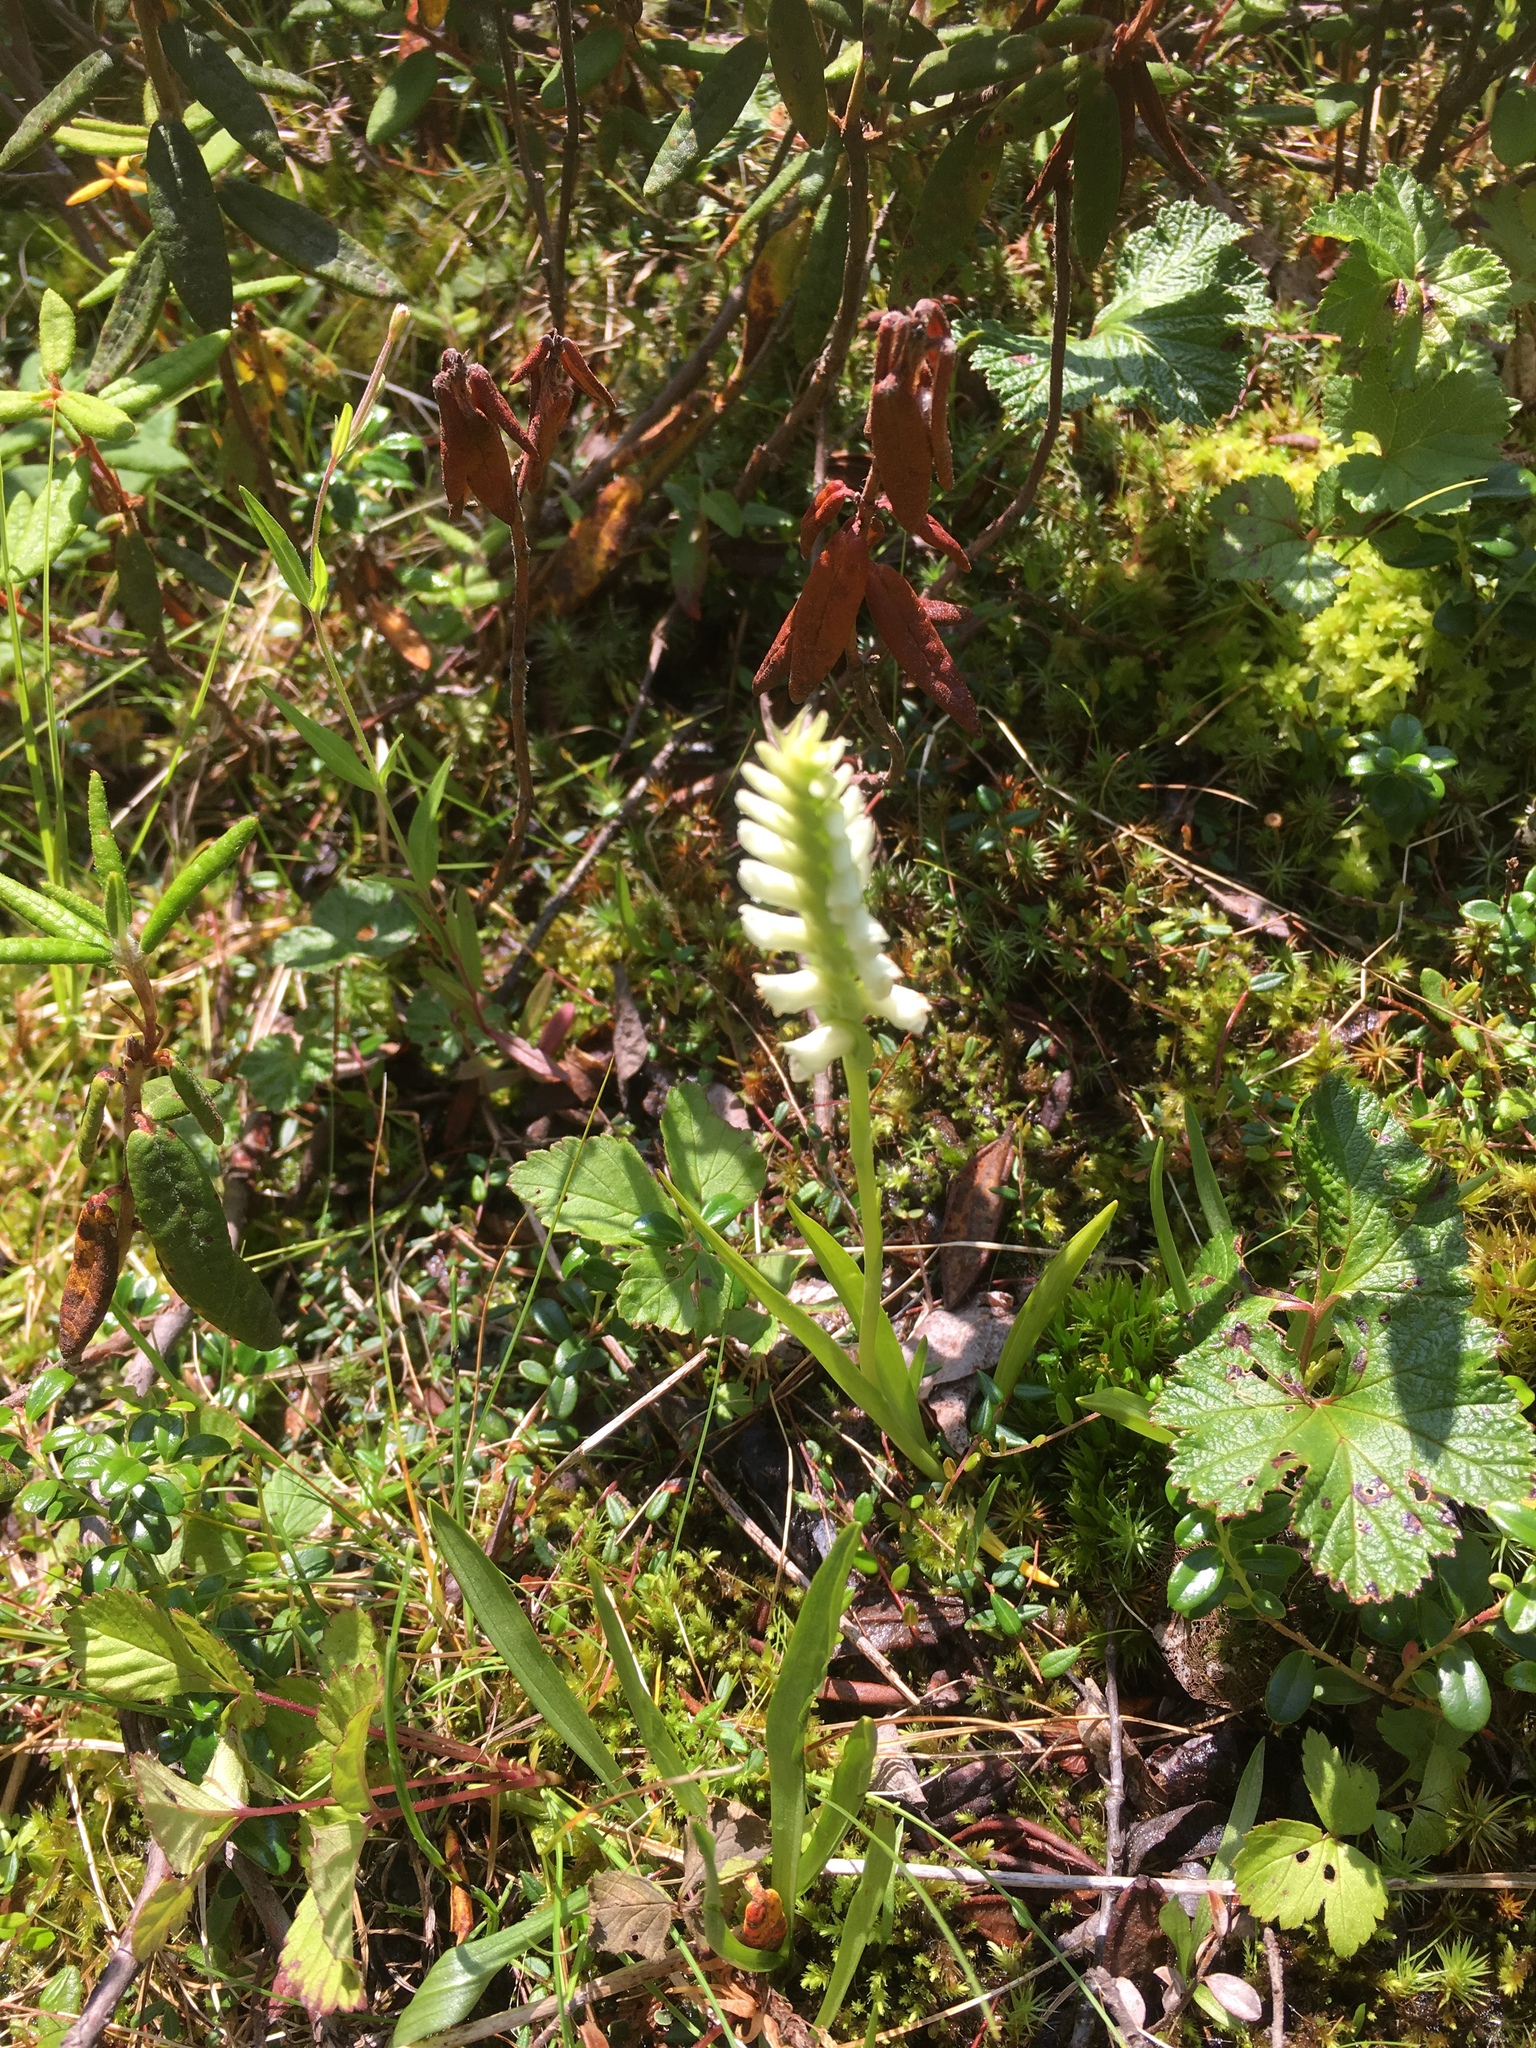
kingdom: Plantae
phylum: Tracheophyta
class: Liliopsida
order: Asparagales
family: Orchidaceae
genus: Spiranthes
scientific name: Spiranthes romanzoffiana
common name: Irish lady's-tresses
